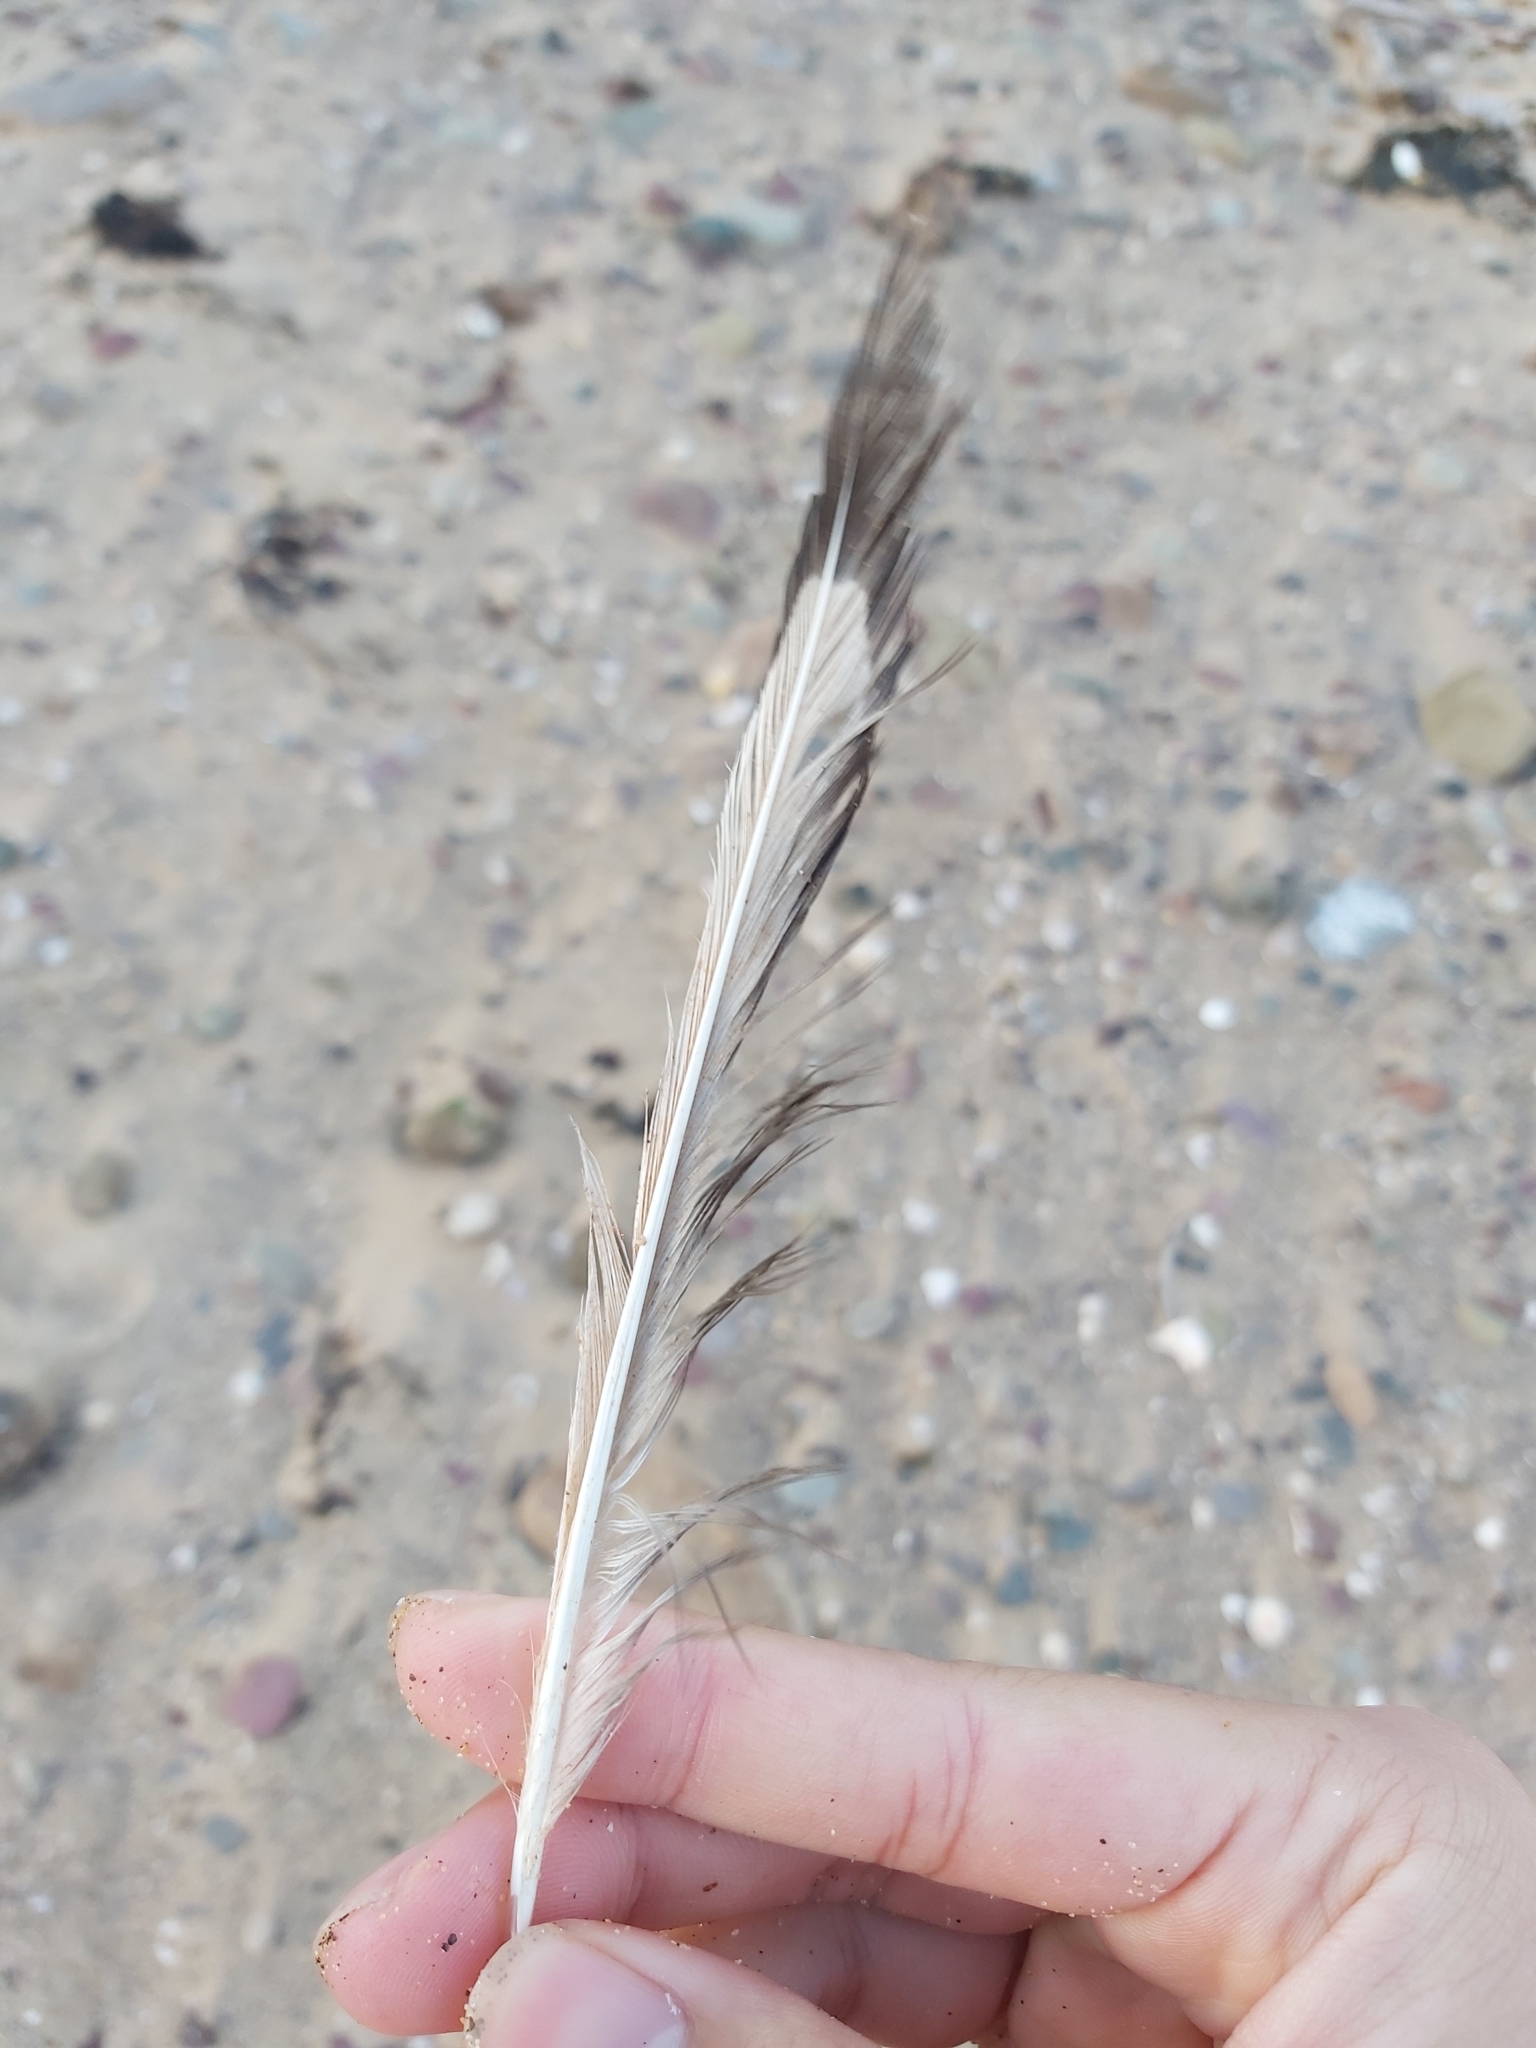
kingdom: Animalia
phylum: Chordata
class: Aves
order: Charadriiformes
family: Laridae
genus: Chroicocephalus
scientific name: Chroicocephalus novaehollandiae
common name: Silver gull
